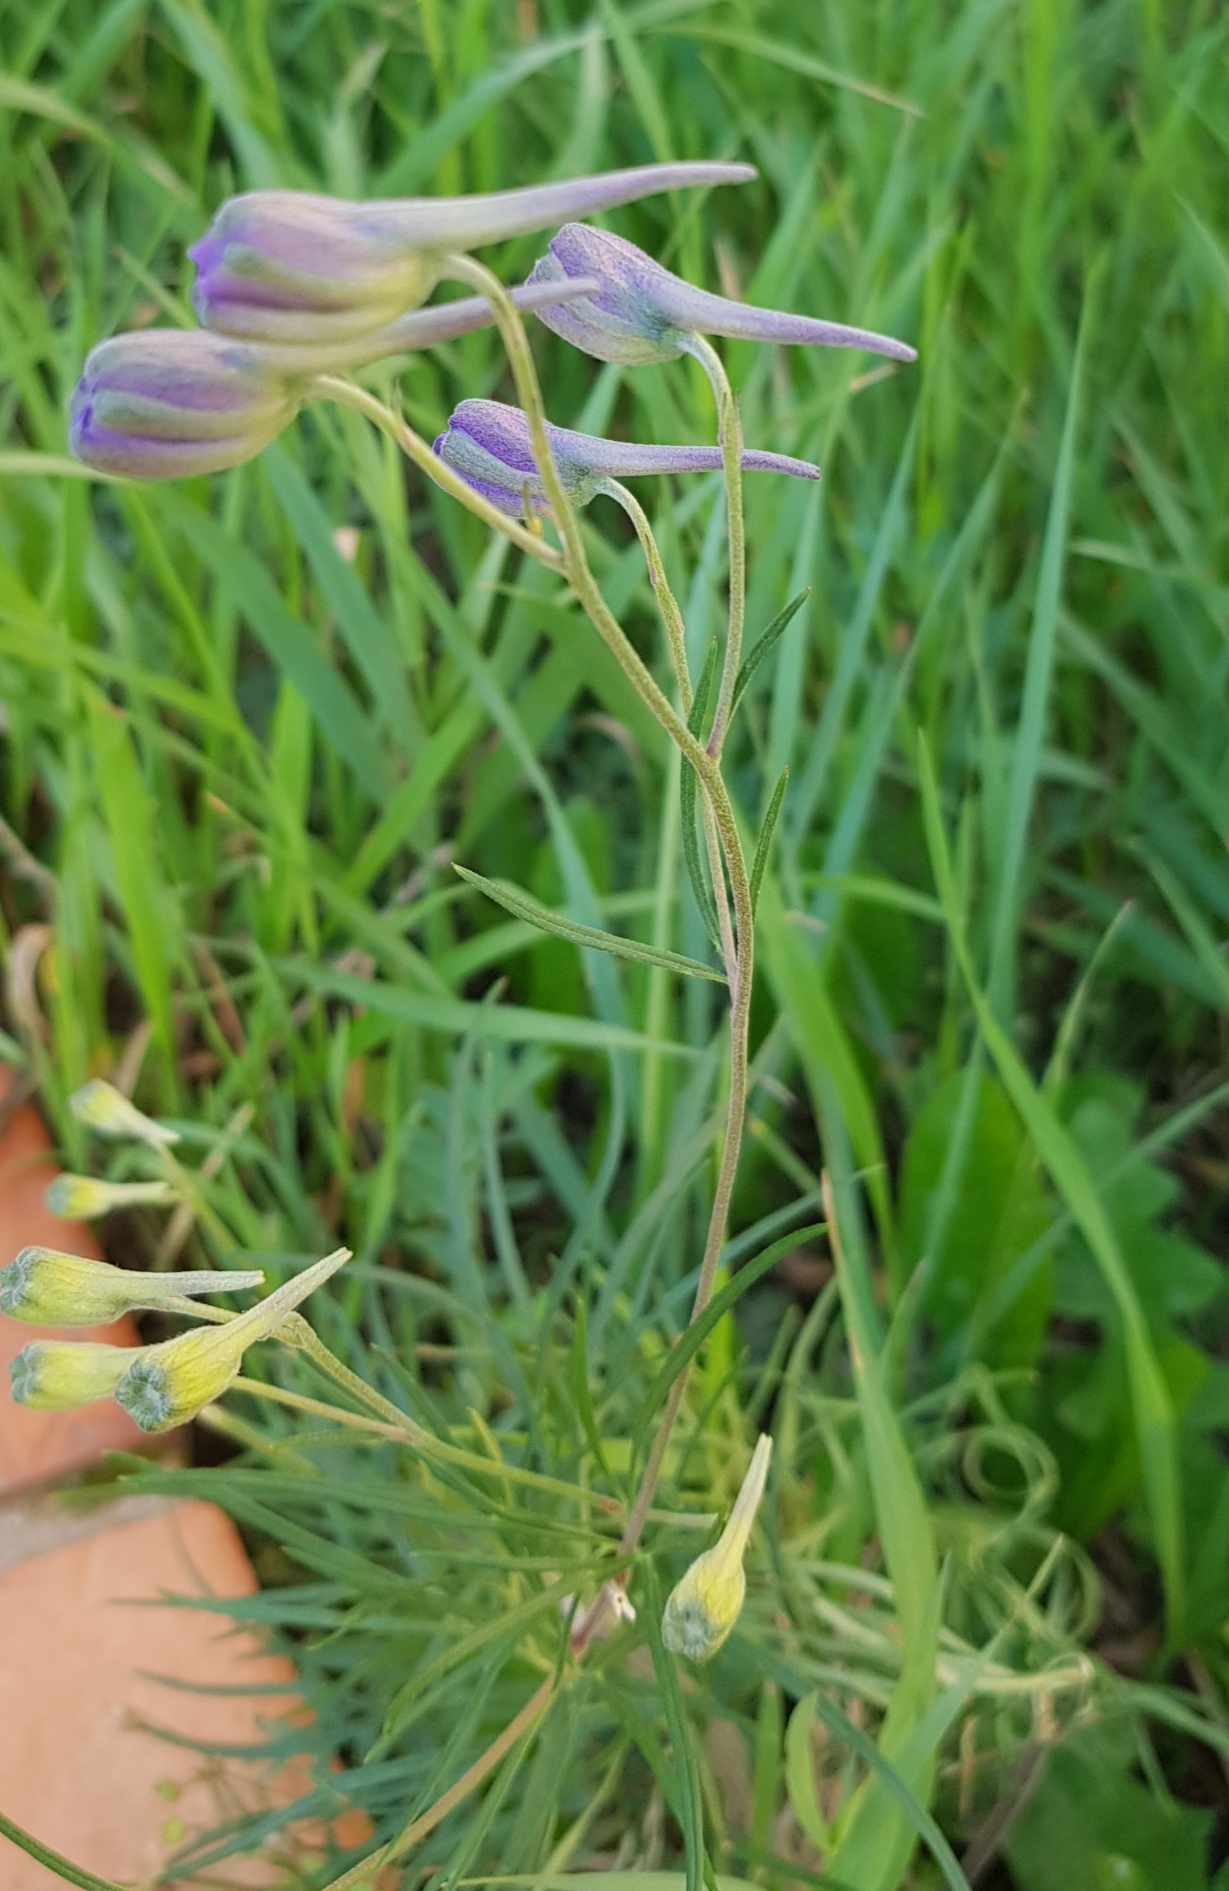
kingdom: Plantae
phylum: Tracheophyta
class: Magnoliopsida
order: Ranunculales
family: Ranunculaceae
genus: Delphinium
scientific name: Delphinium grandiflorum
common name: Siberian larkspur
